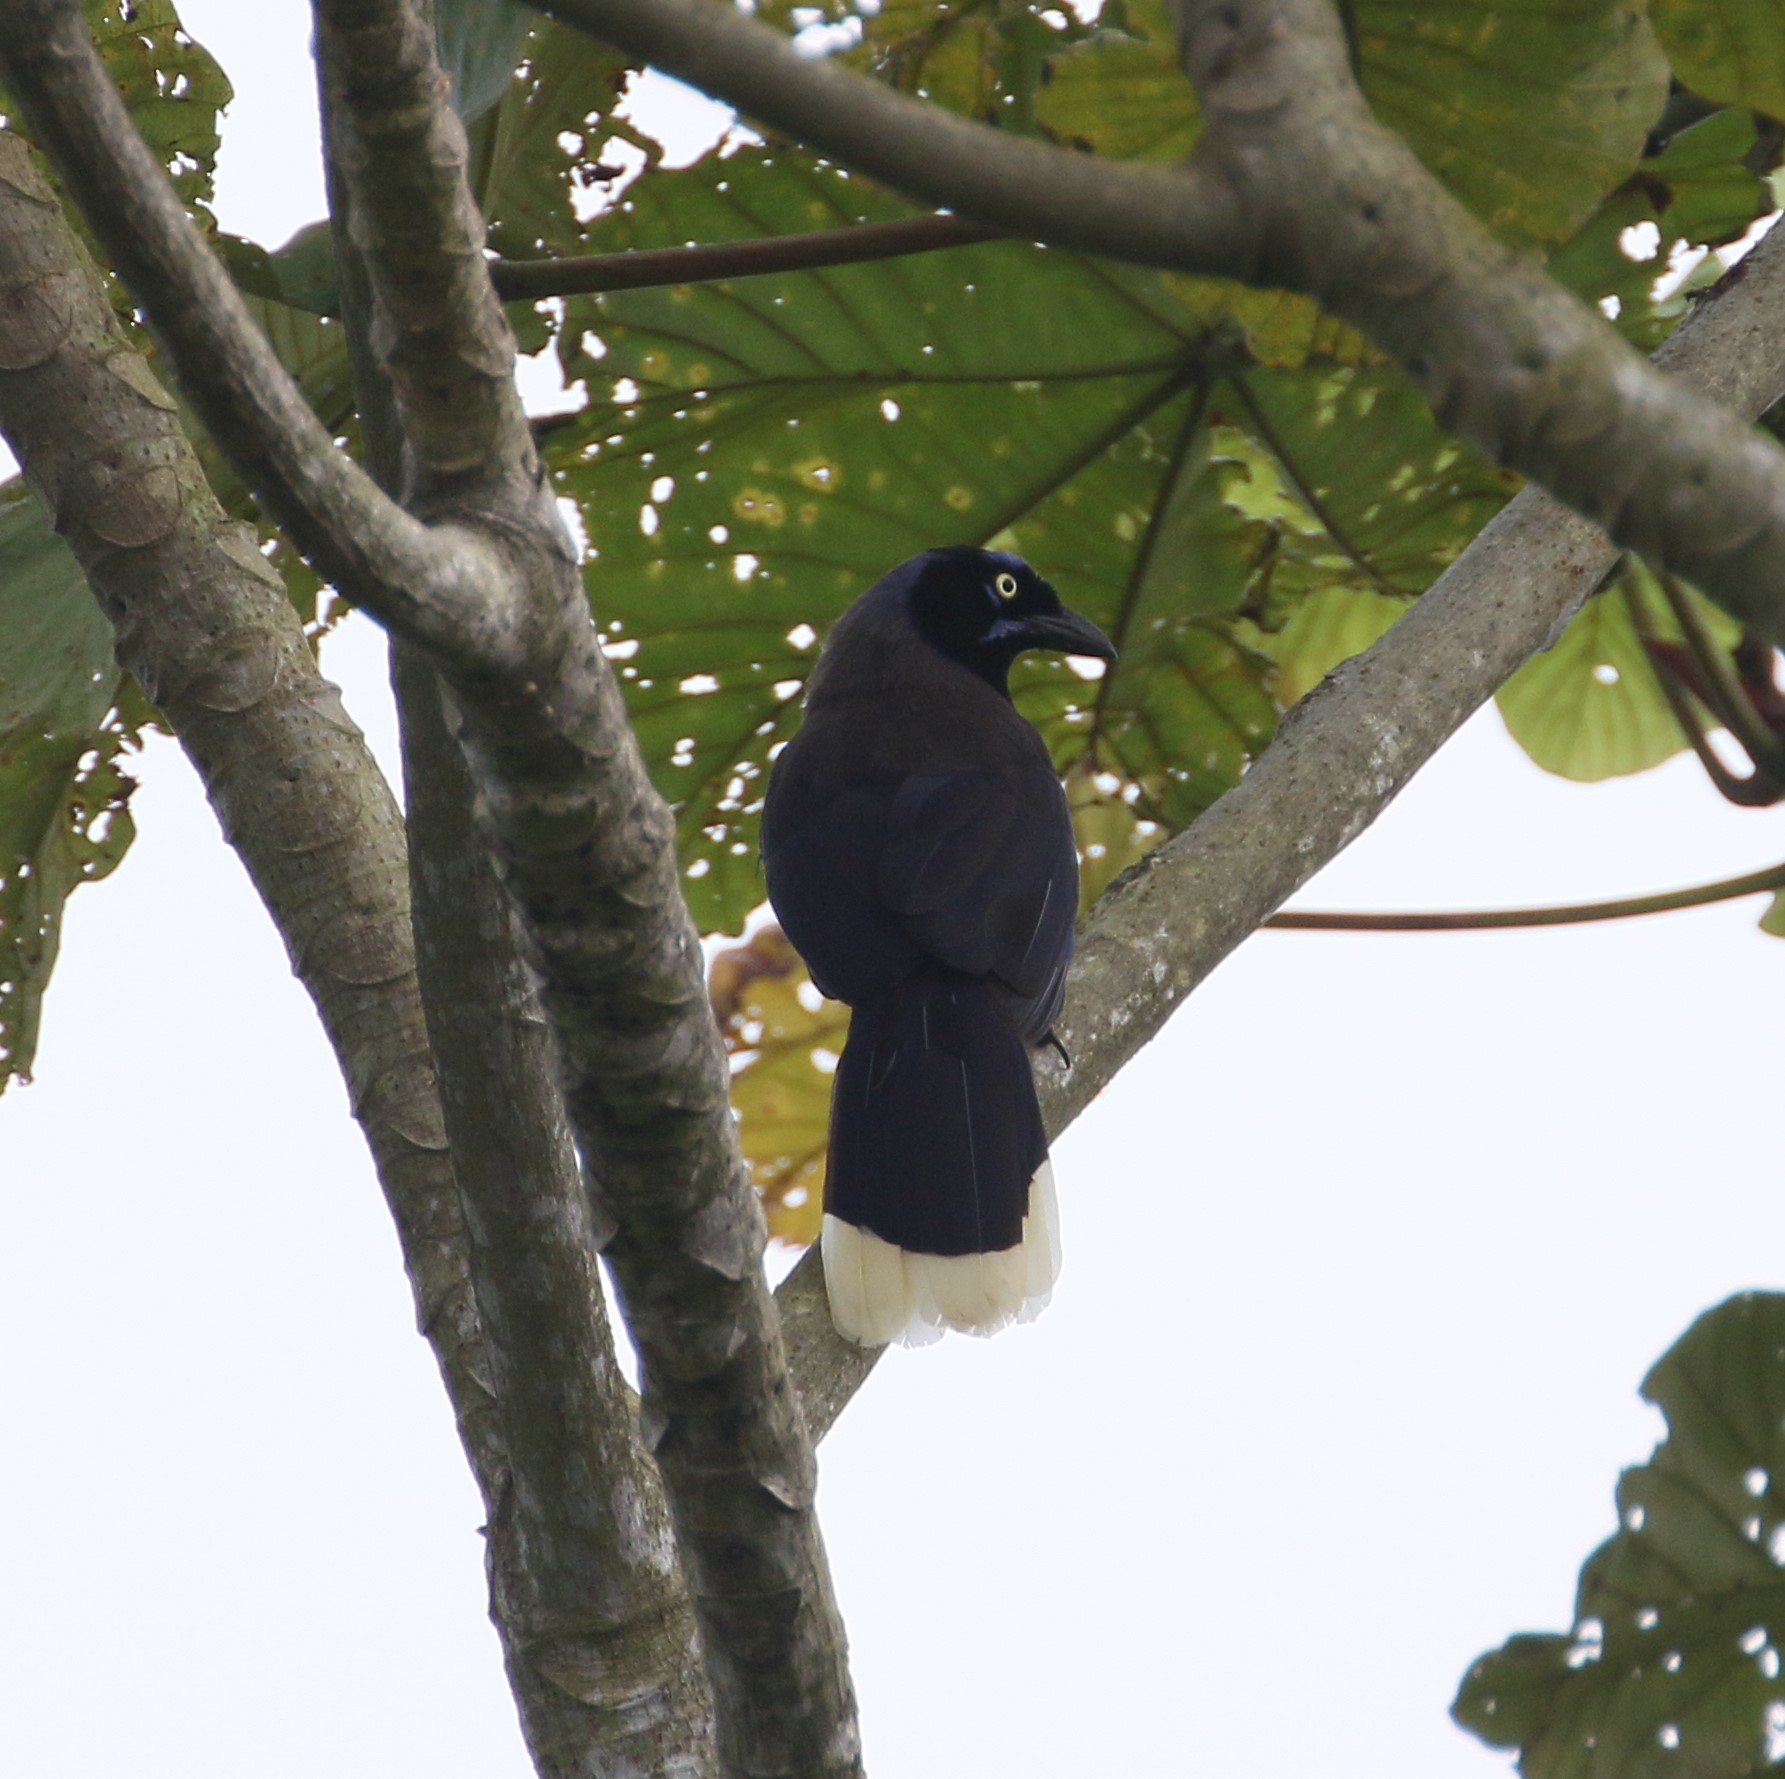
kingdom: Animalia
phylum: Chordata
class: Aves
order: Passeriformes
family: Corvidae
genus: Cyanocorax
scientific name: Cyanocorax affinis
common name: Black-chested jay
